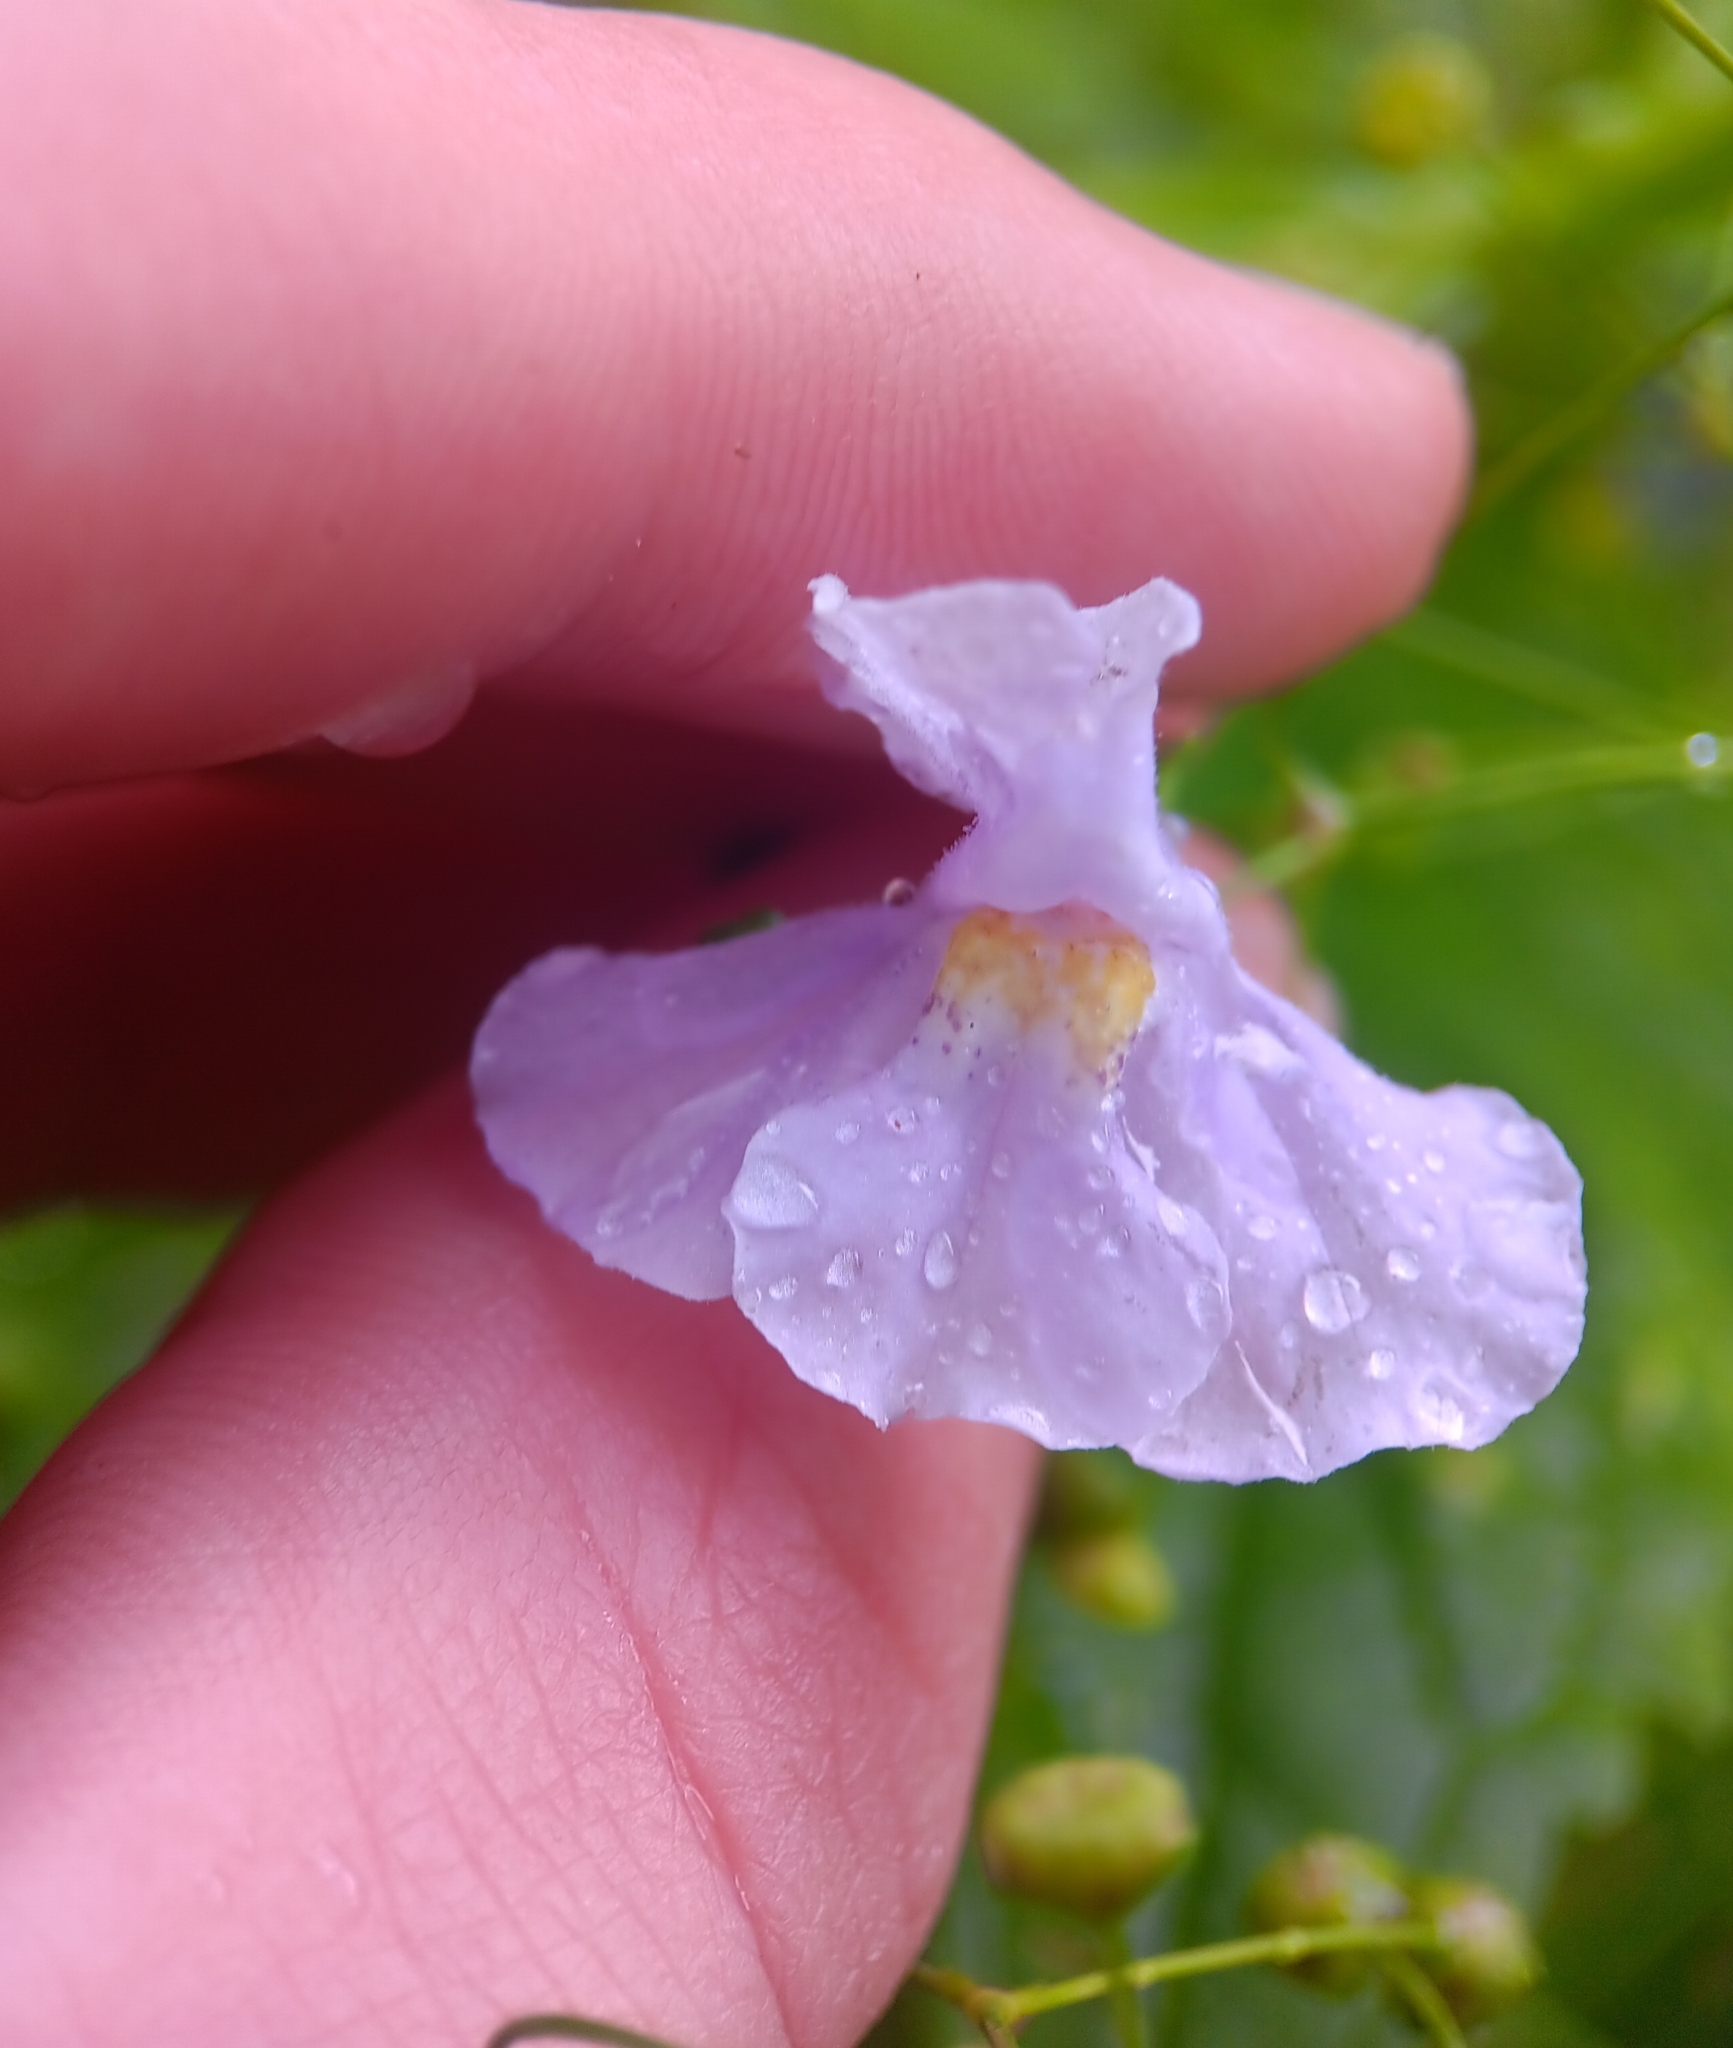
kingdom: Plantae
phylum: Tracheophyta
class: Magnoliopsida
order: Lamiales
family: Phrymaceae
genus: Mimulus
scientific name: Mimulus ringens
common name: Allegheny monkeyflower
